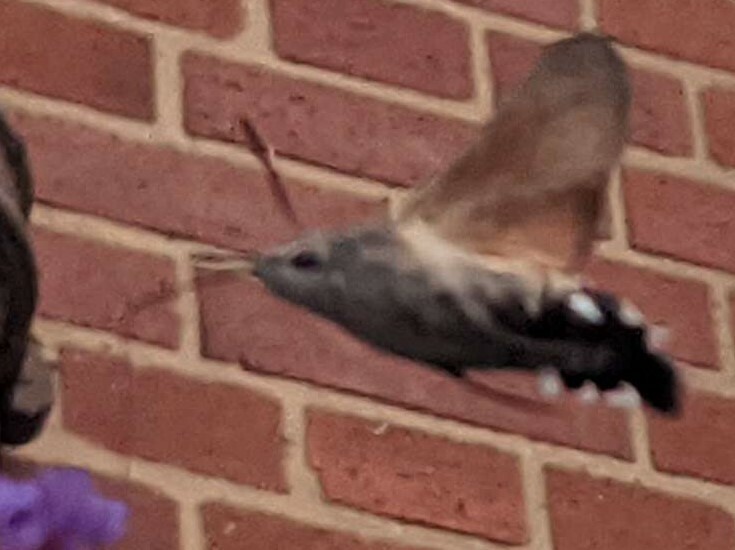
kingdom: Animalia
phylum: Arthropoda
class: Insecta
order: Lepidoptera
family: Sphingidae
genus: Macroglossum
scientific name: Macroglossum stellatarum
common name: Humming-bird hawk-moth
